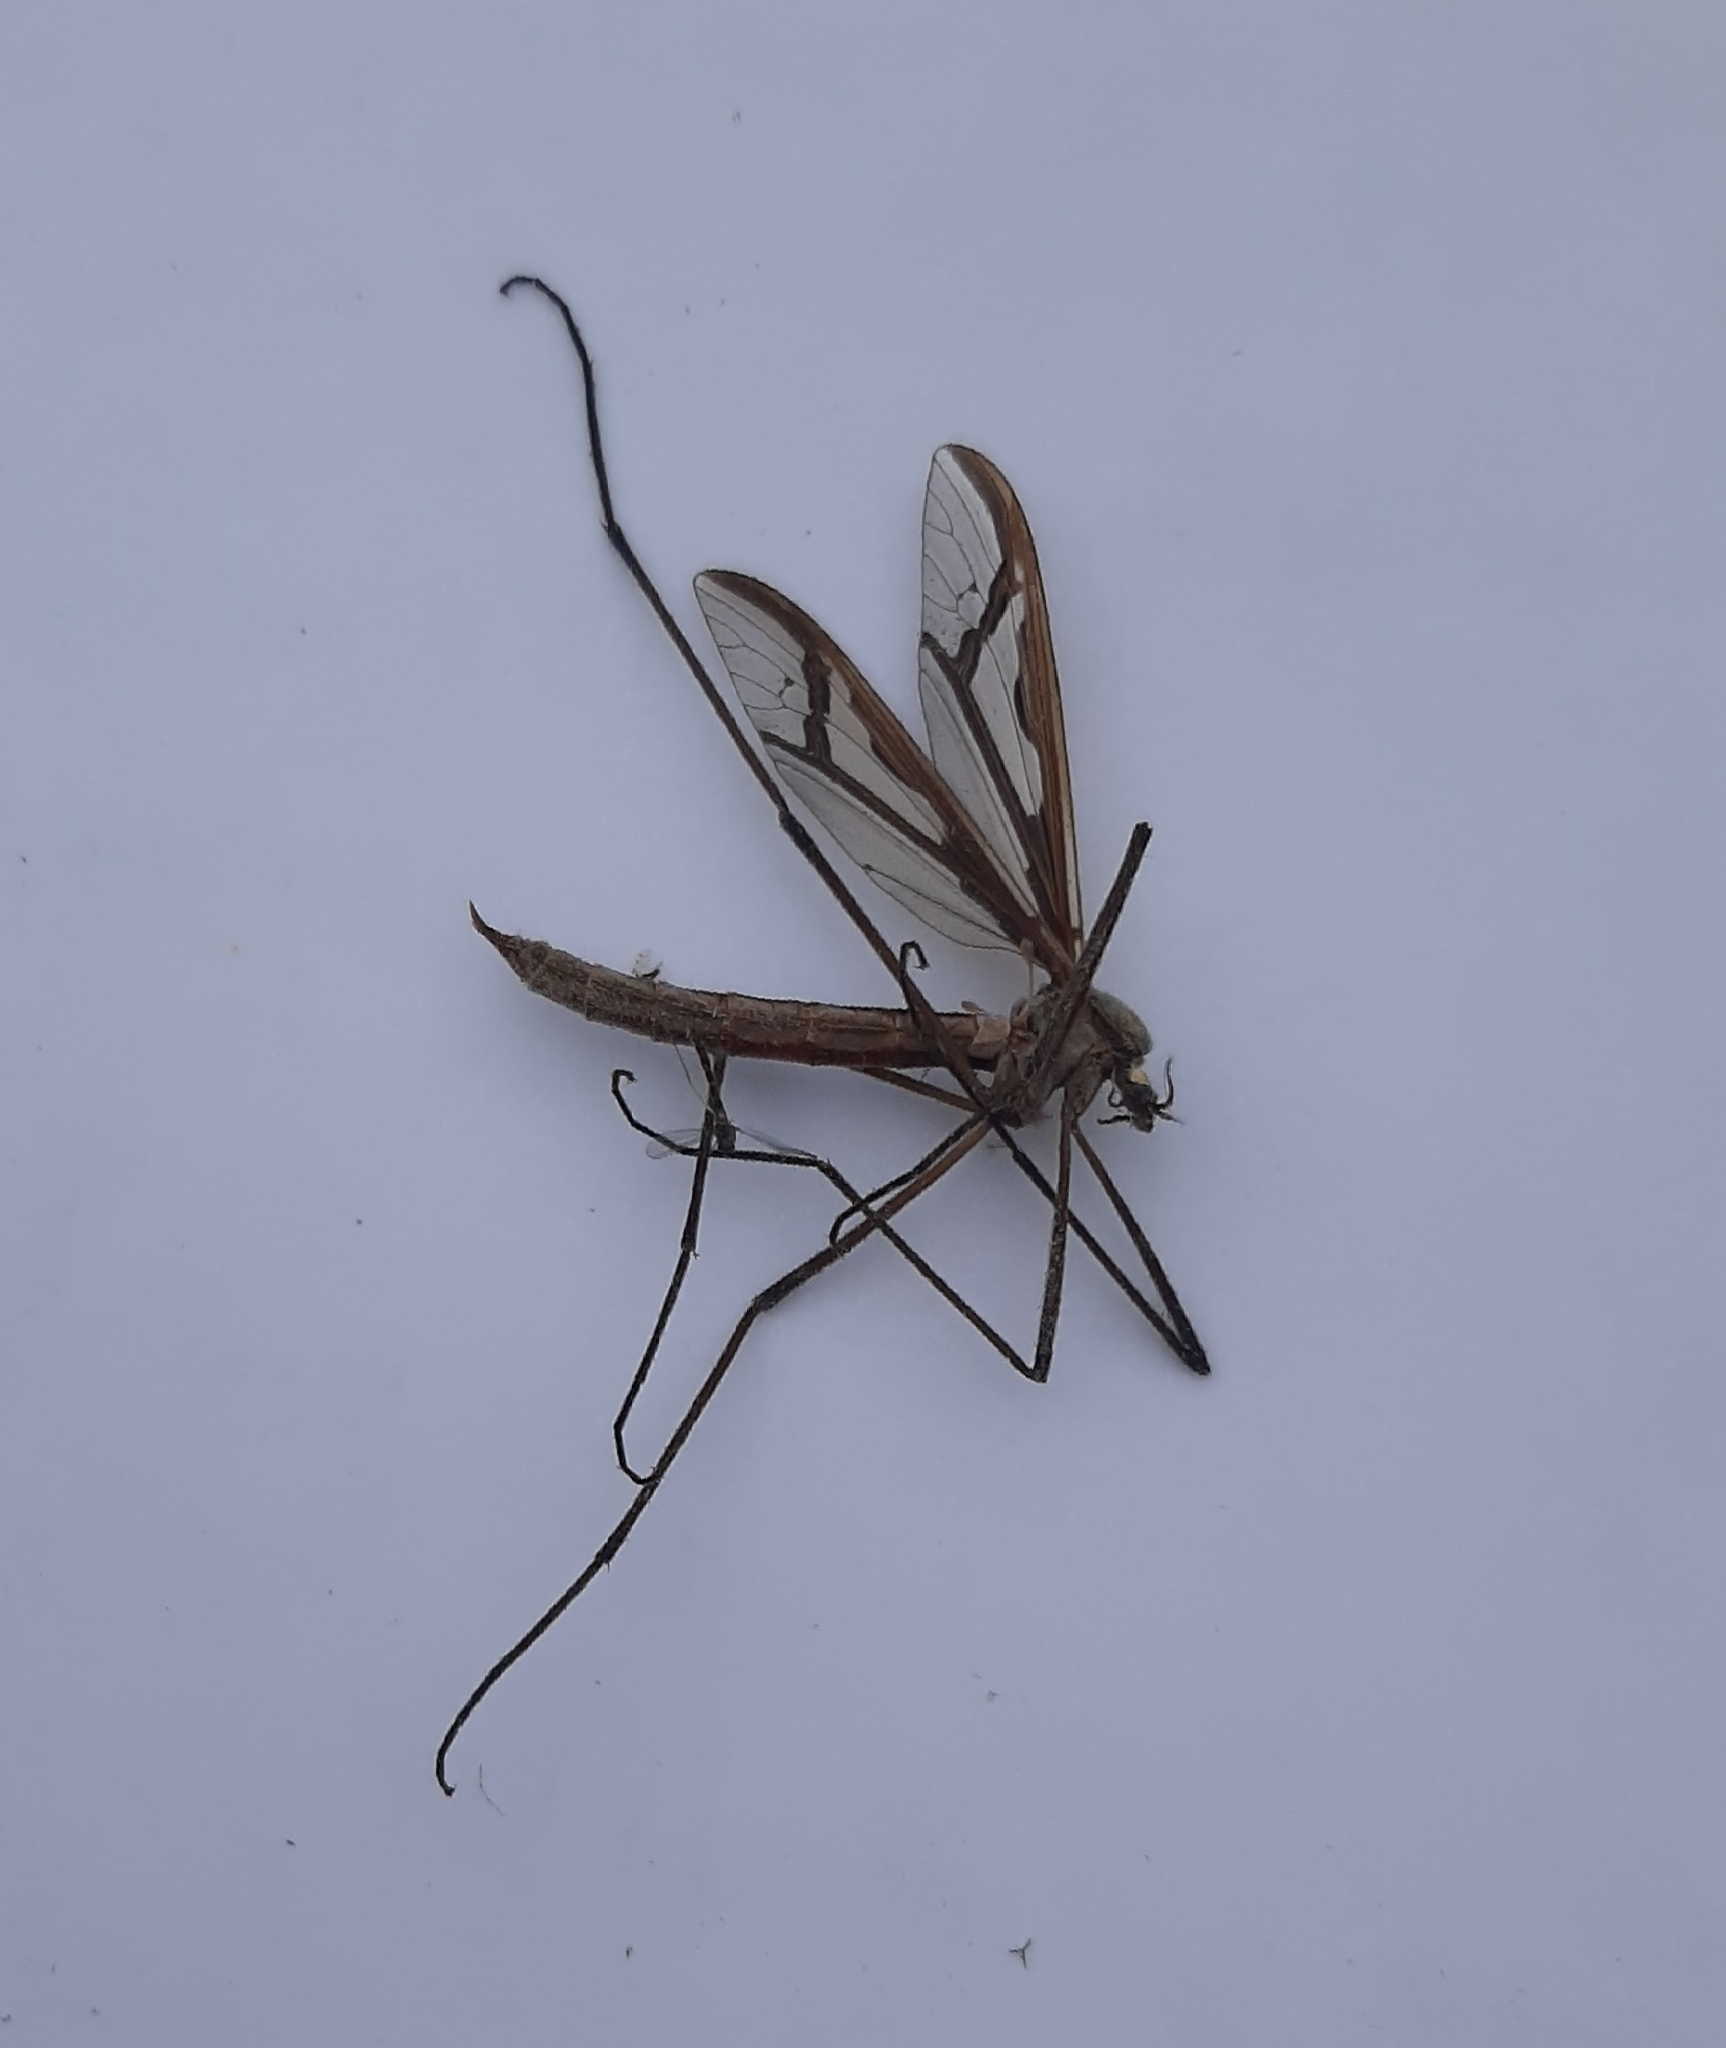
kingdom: Animalia
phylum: Arthropoda
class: Insecta
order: Diptera
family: Pediciidae
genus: Pedicia
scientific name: Pedicia rivosa
